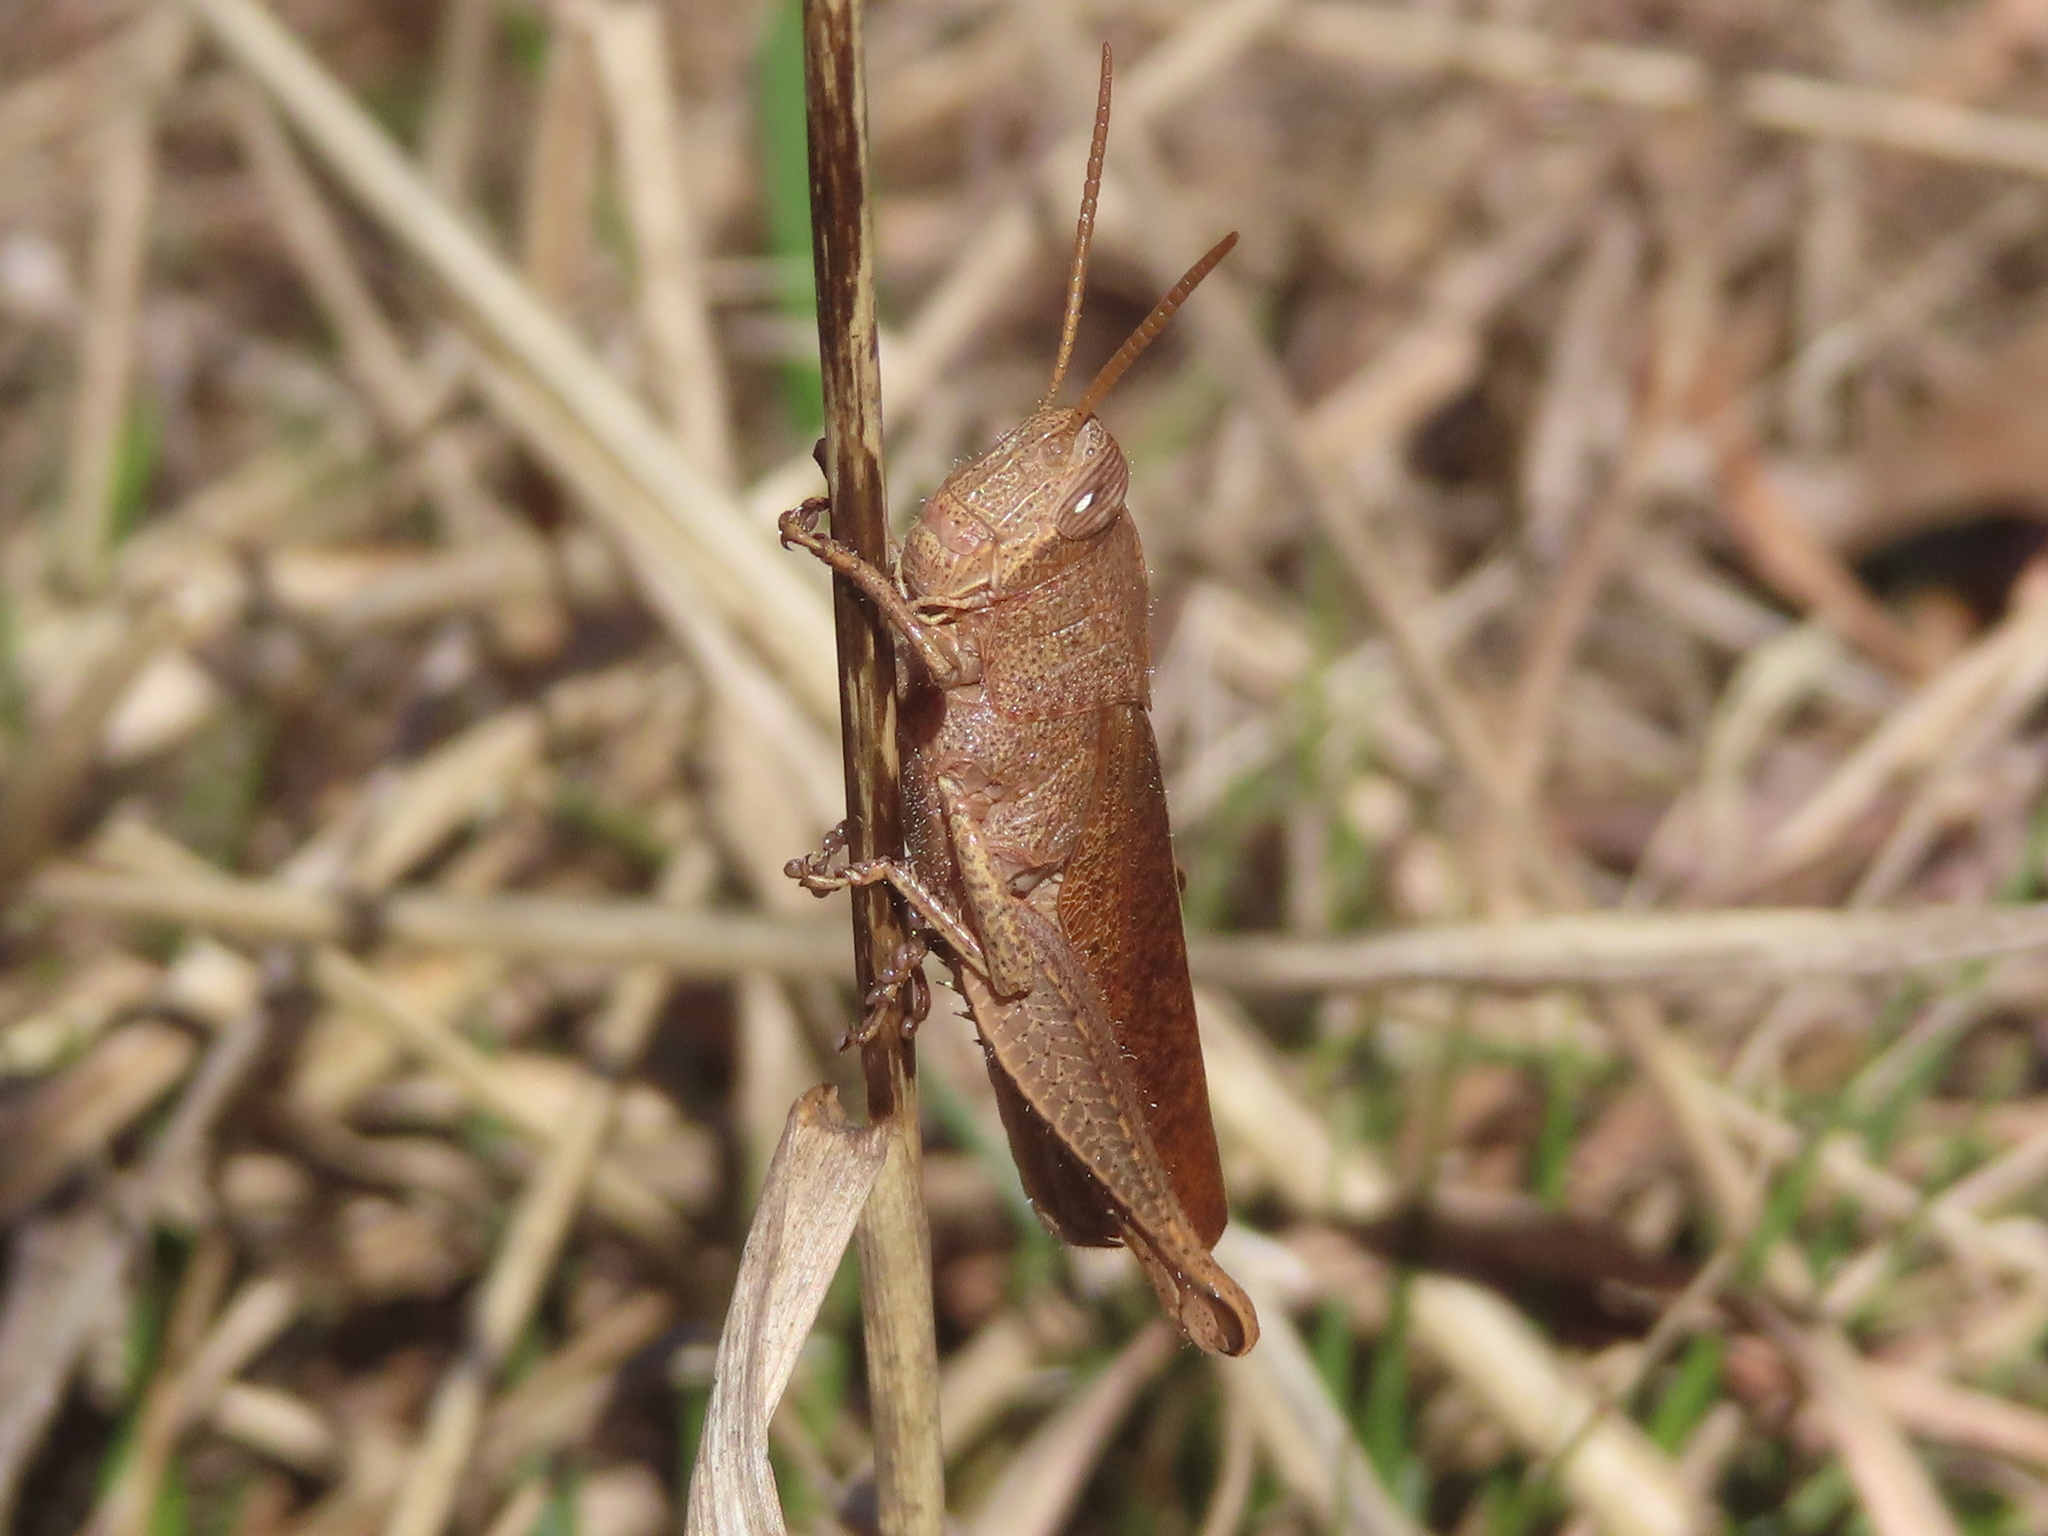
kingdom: Animalia
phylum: Arthropoda
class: Insecta
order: Orthoptera
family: Acrididae
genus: Schistocerca
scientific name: Schistocerca damnifica
